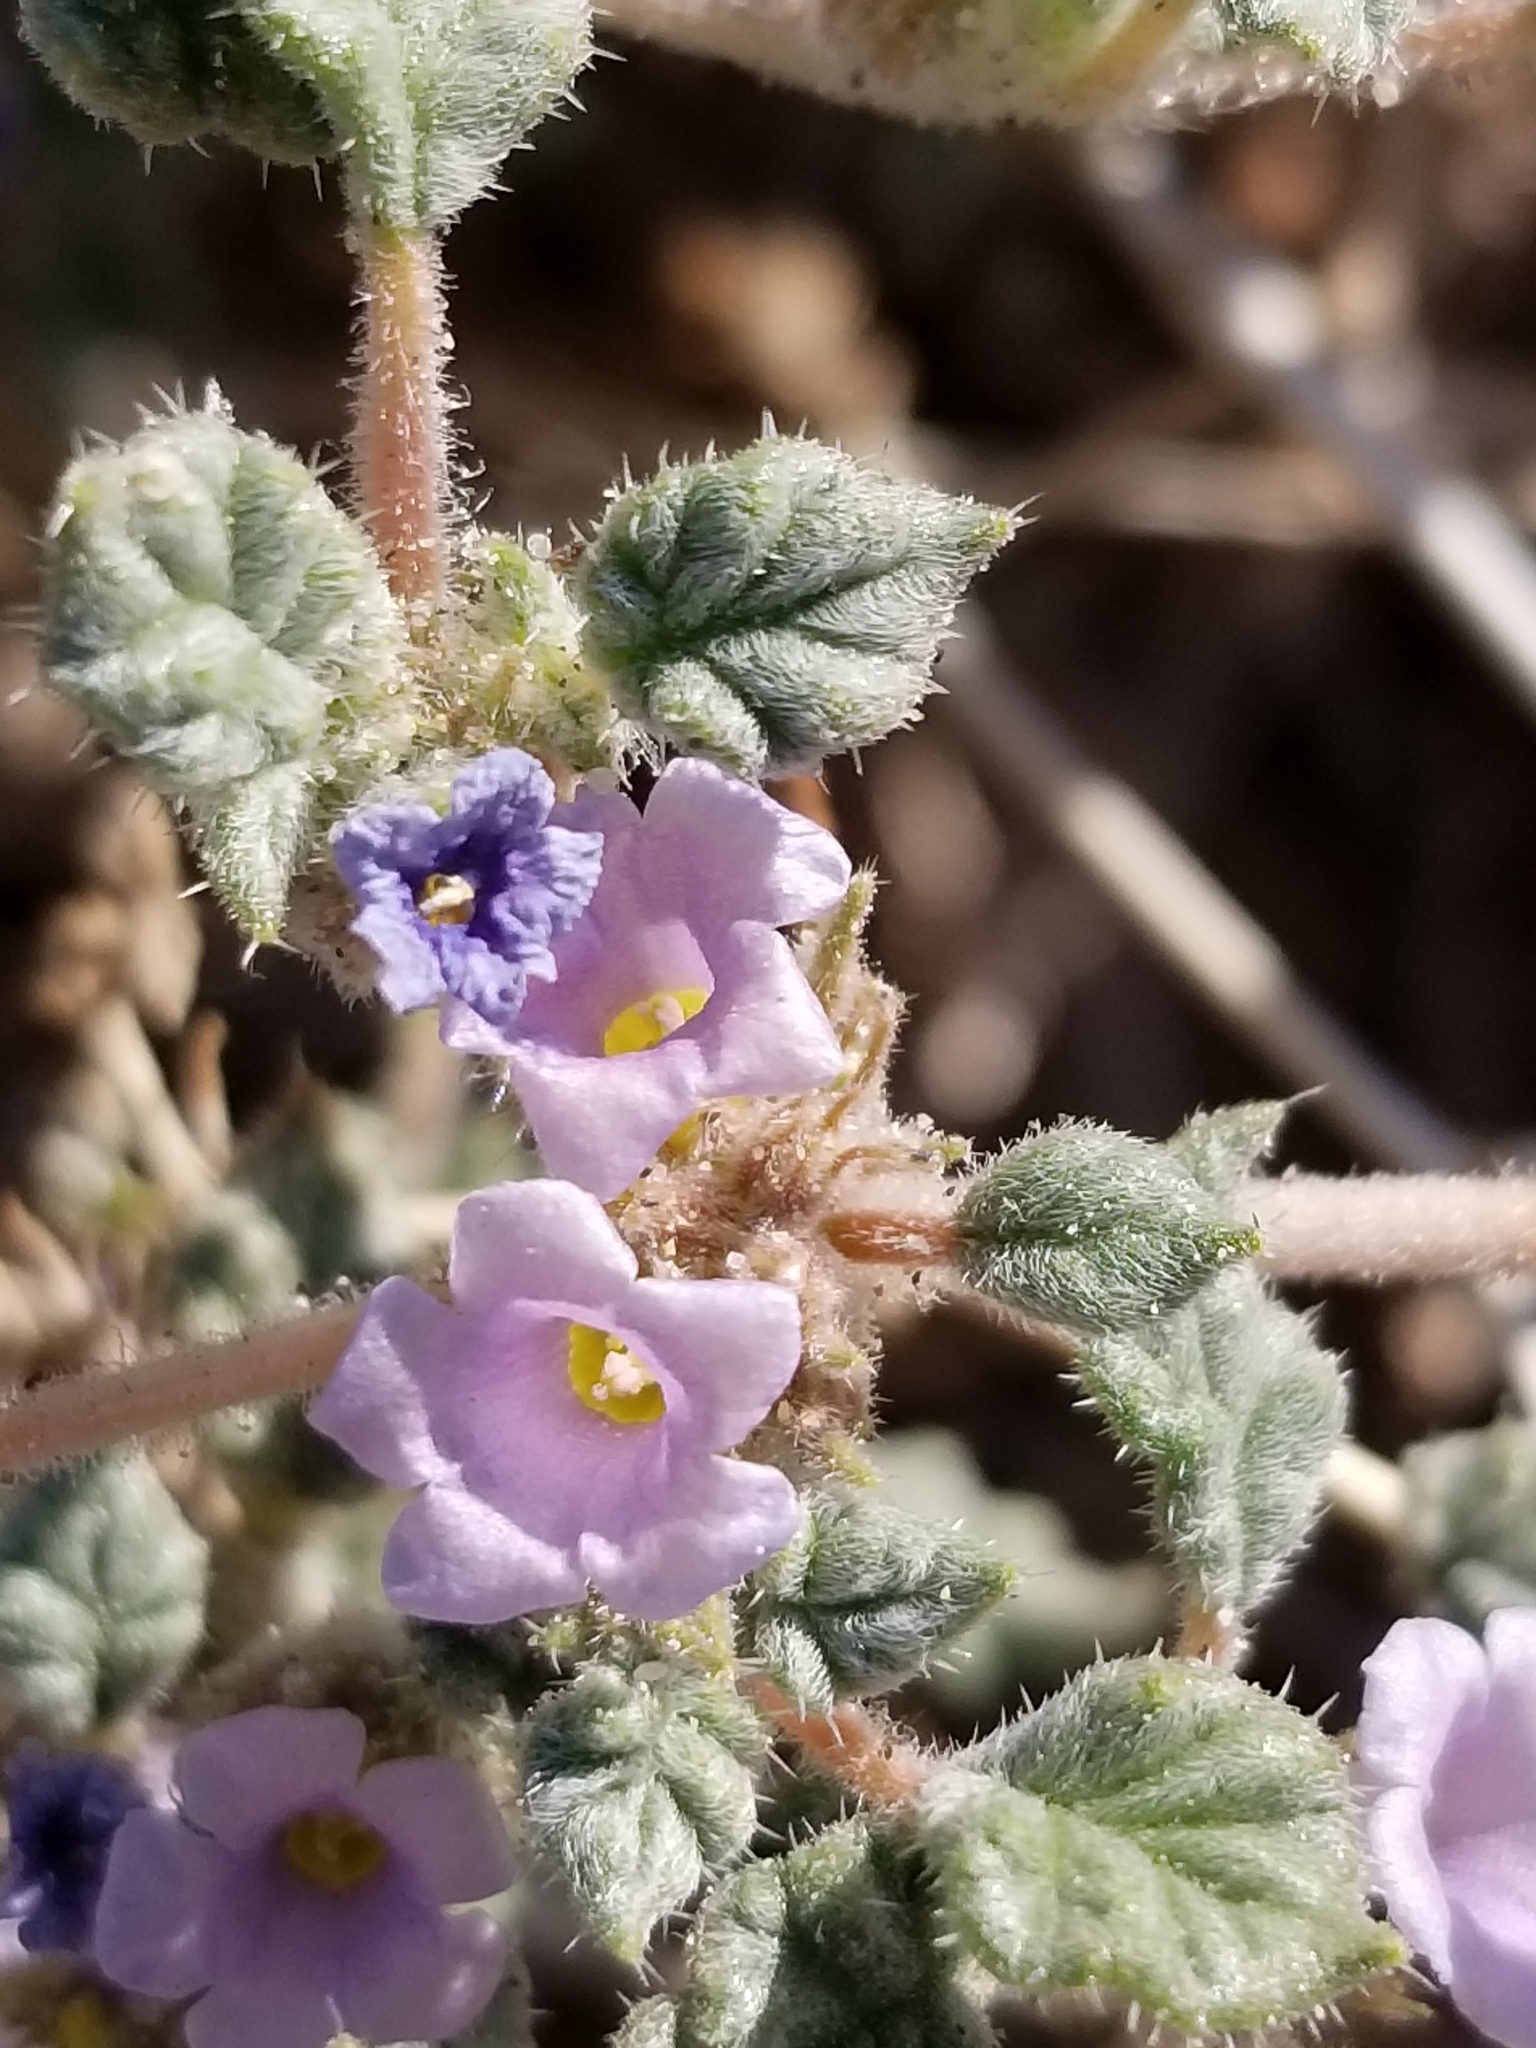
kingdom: Plantae
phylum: Tracheophyta
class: Magnoliopsida
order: Boraginales
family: Ehretiaceae
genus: Tiquilia
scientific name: Tiquilia palmeri
